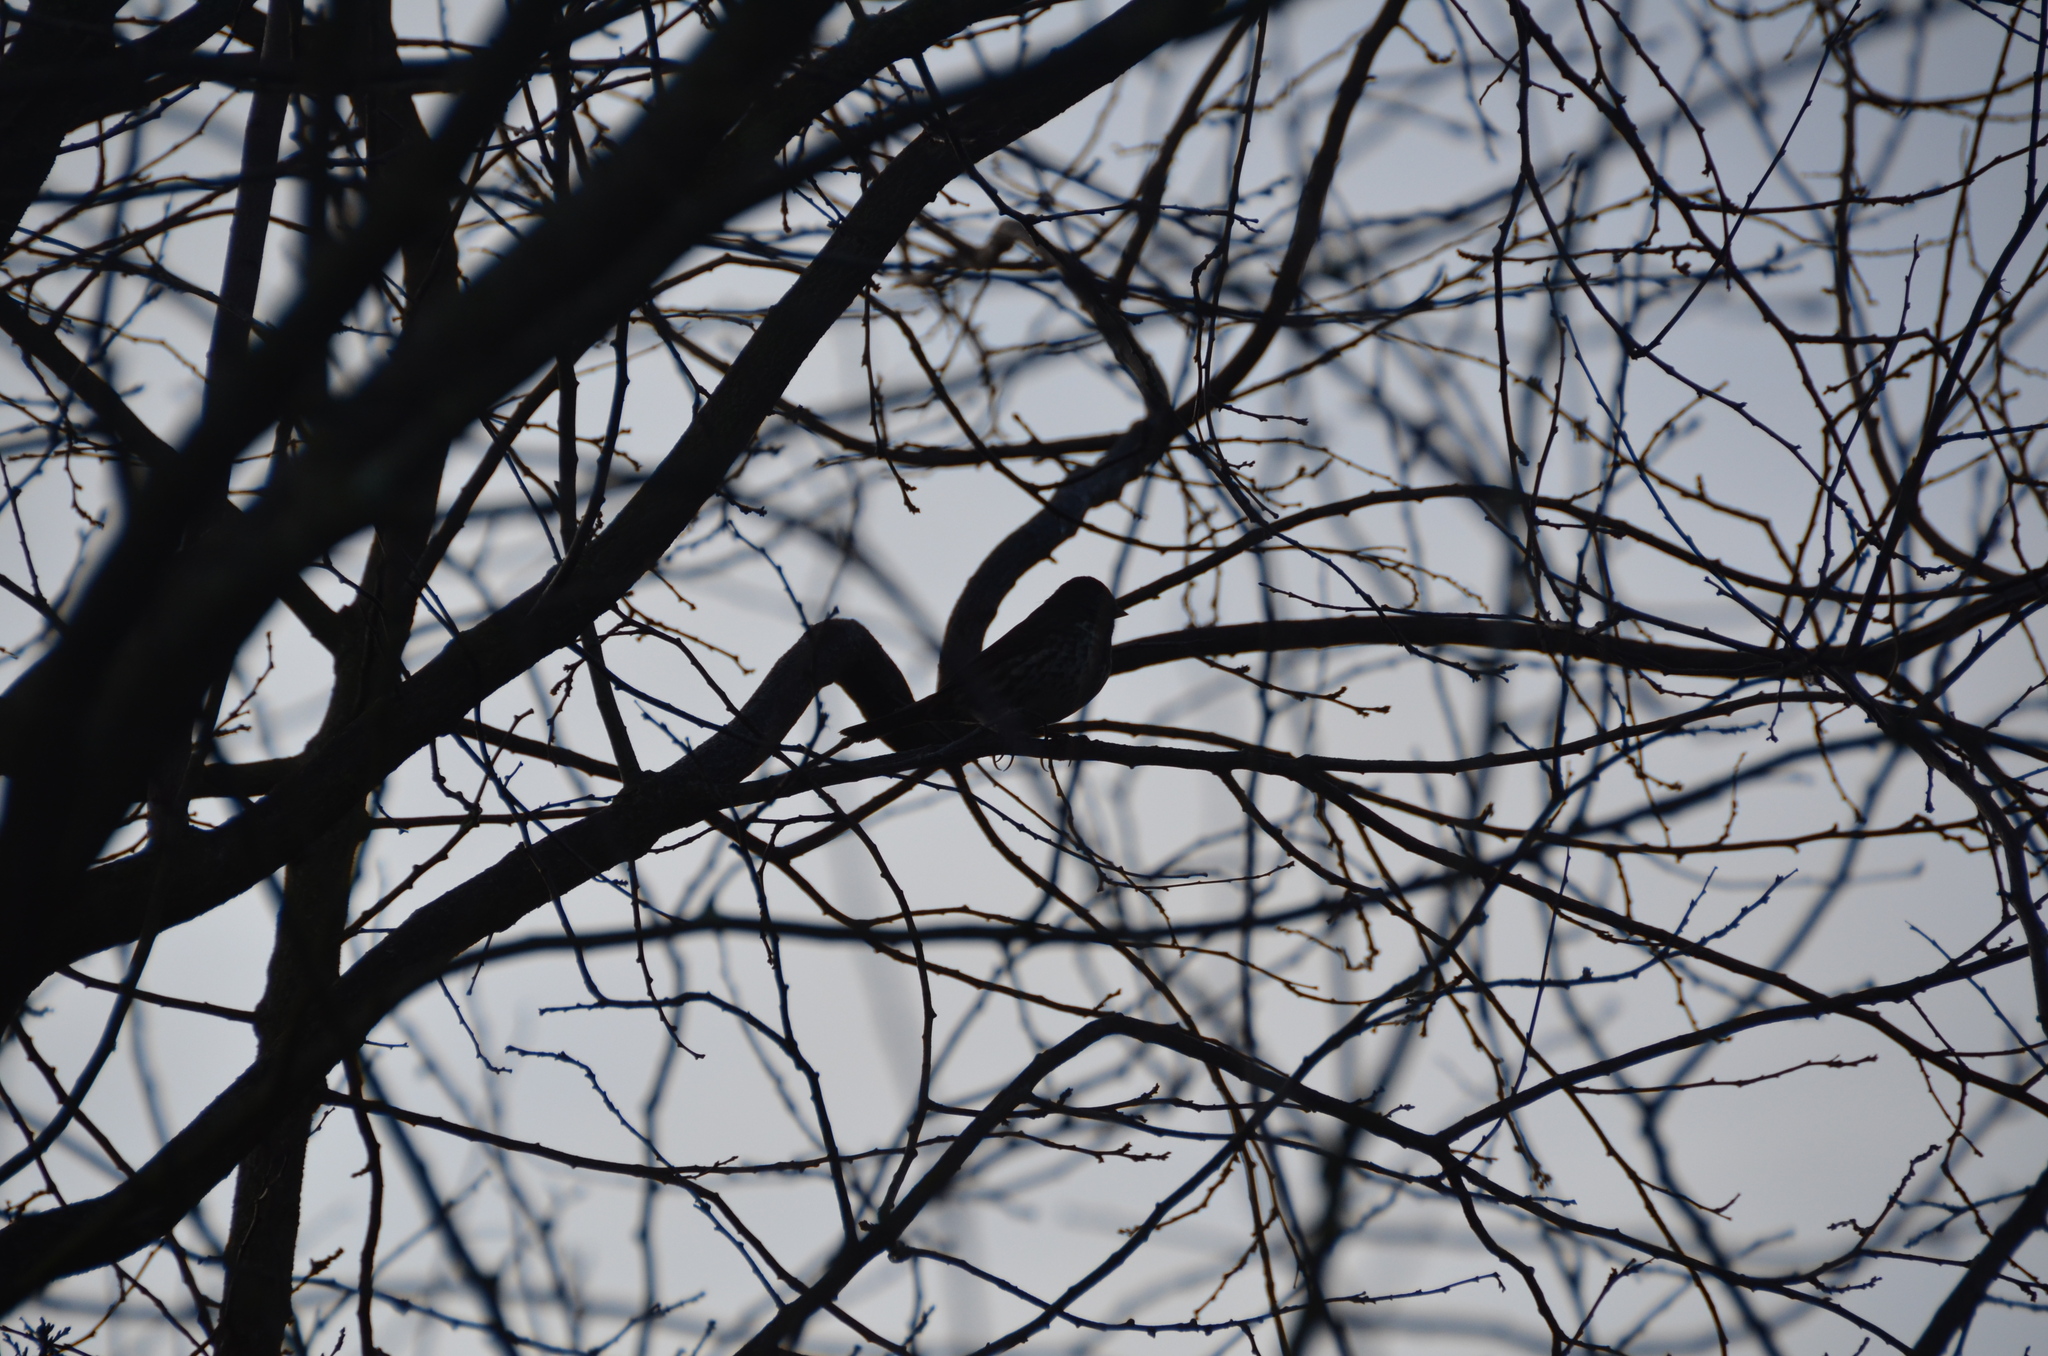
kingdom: Animalia
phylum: Chordata
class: Aves
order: Passeriformes
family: Passerellidae
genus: Passerella
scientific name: Passerella iliaca
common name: Fox sparrow
